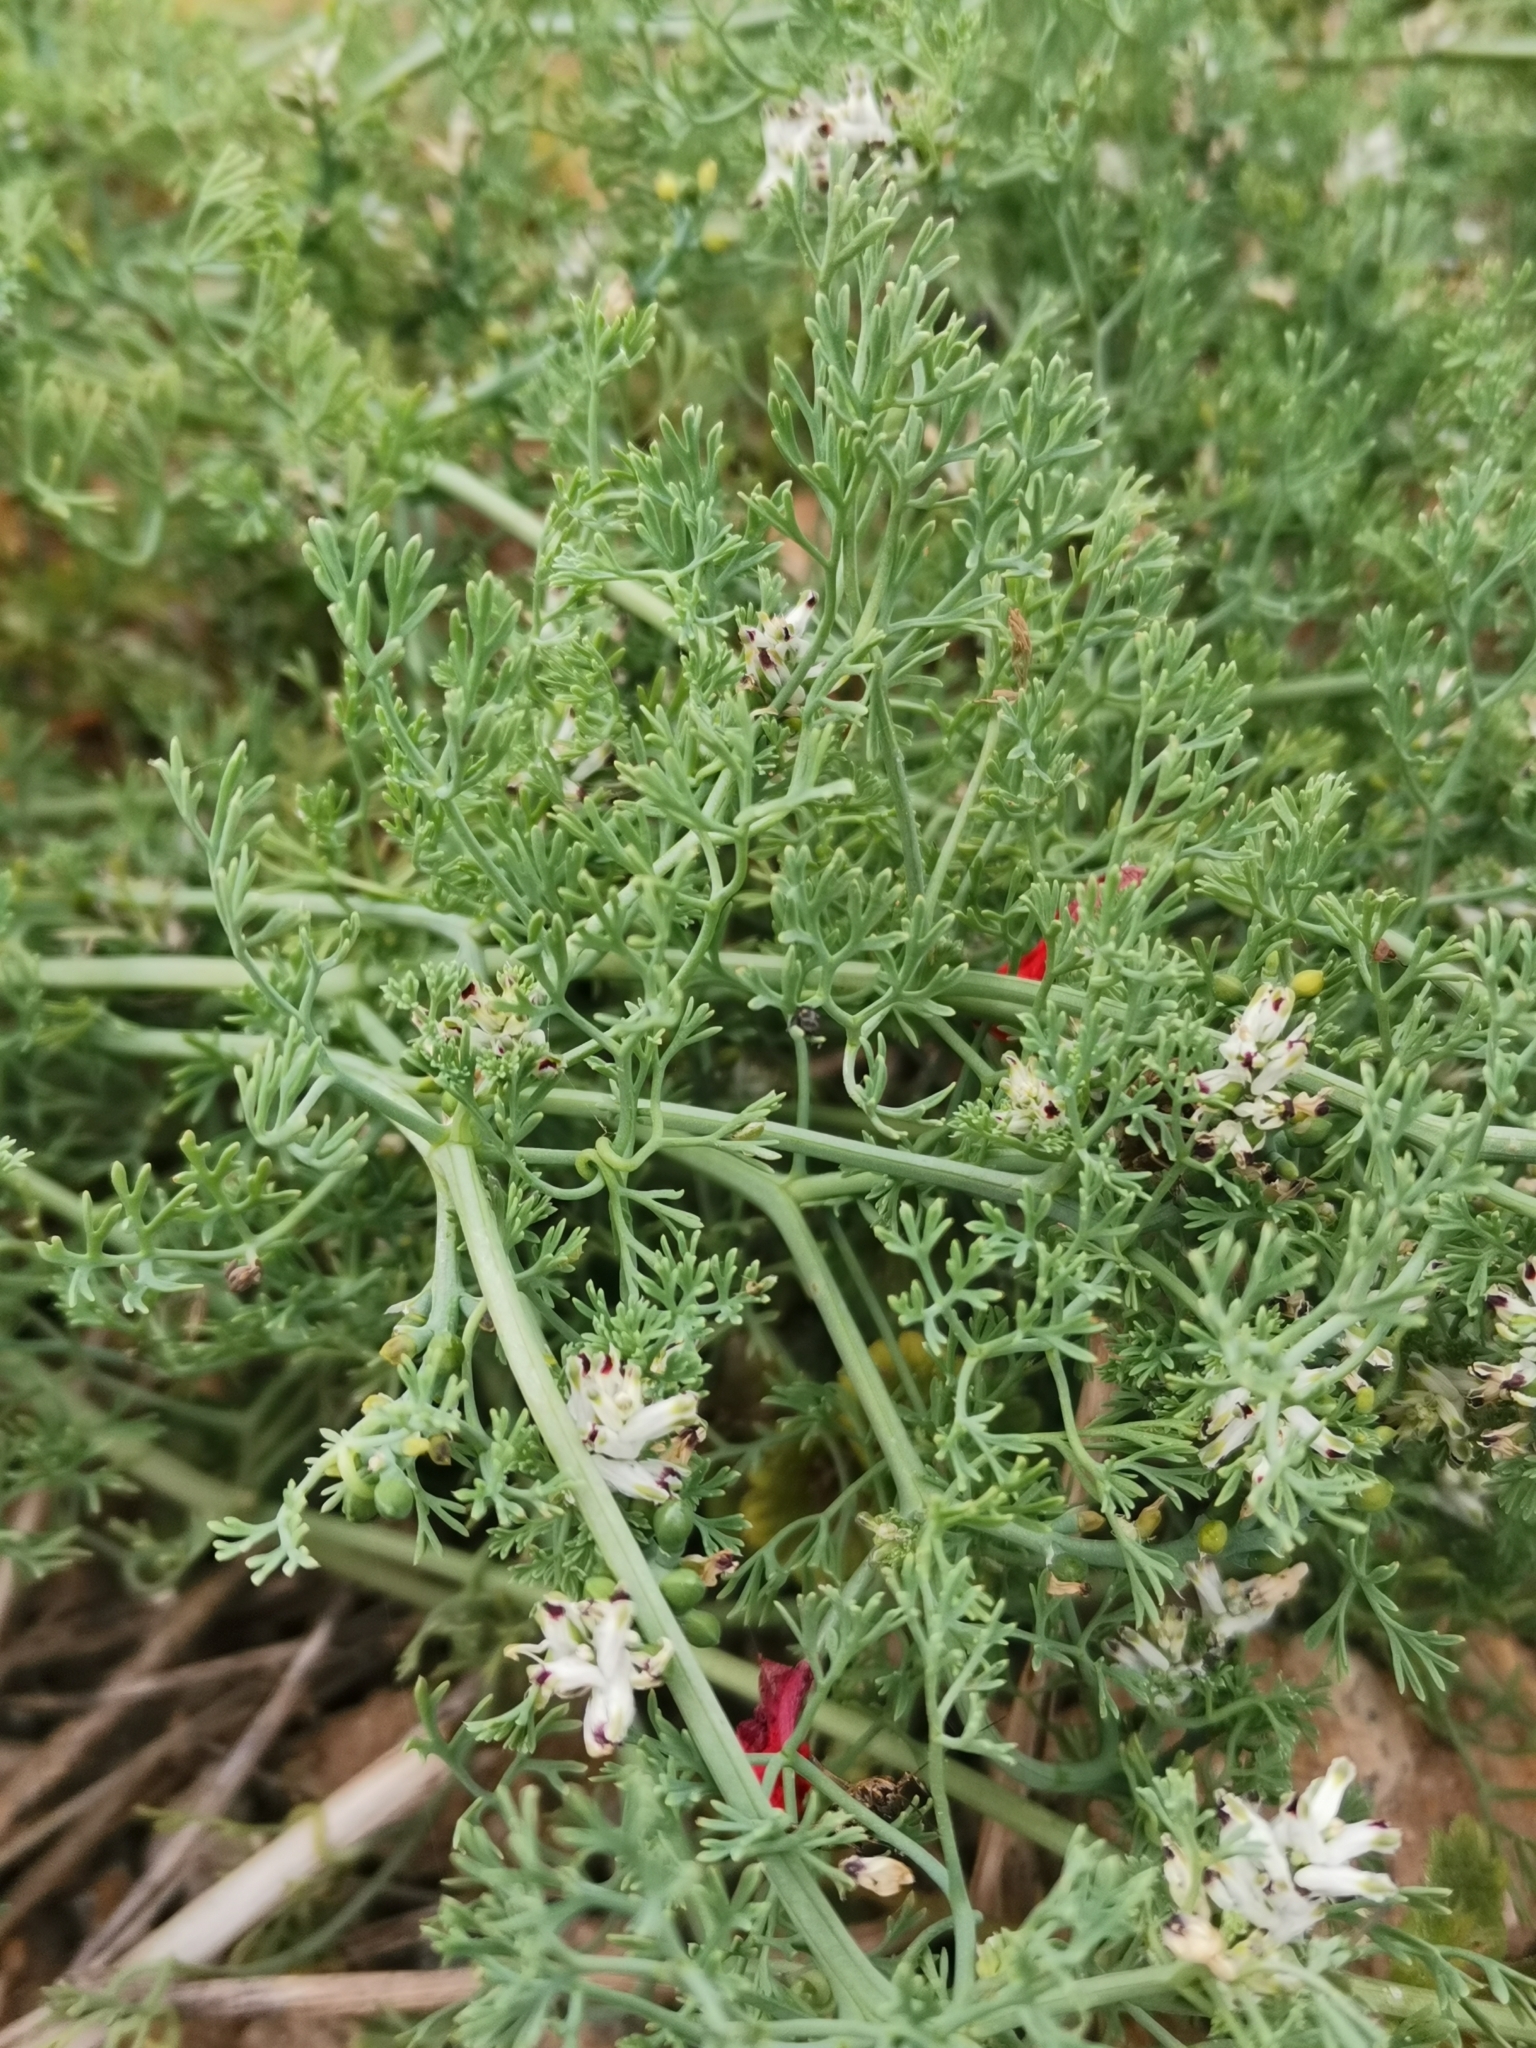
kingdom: Plantae
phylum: Tracheophyta
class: Magnoliopsida
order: Ranunculales
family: Papaveraceae
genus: Fumaria
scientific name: Fumaria parviflora
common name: Fine-leaved fumitory
